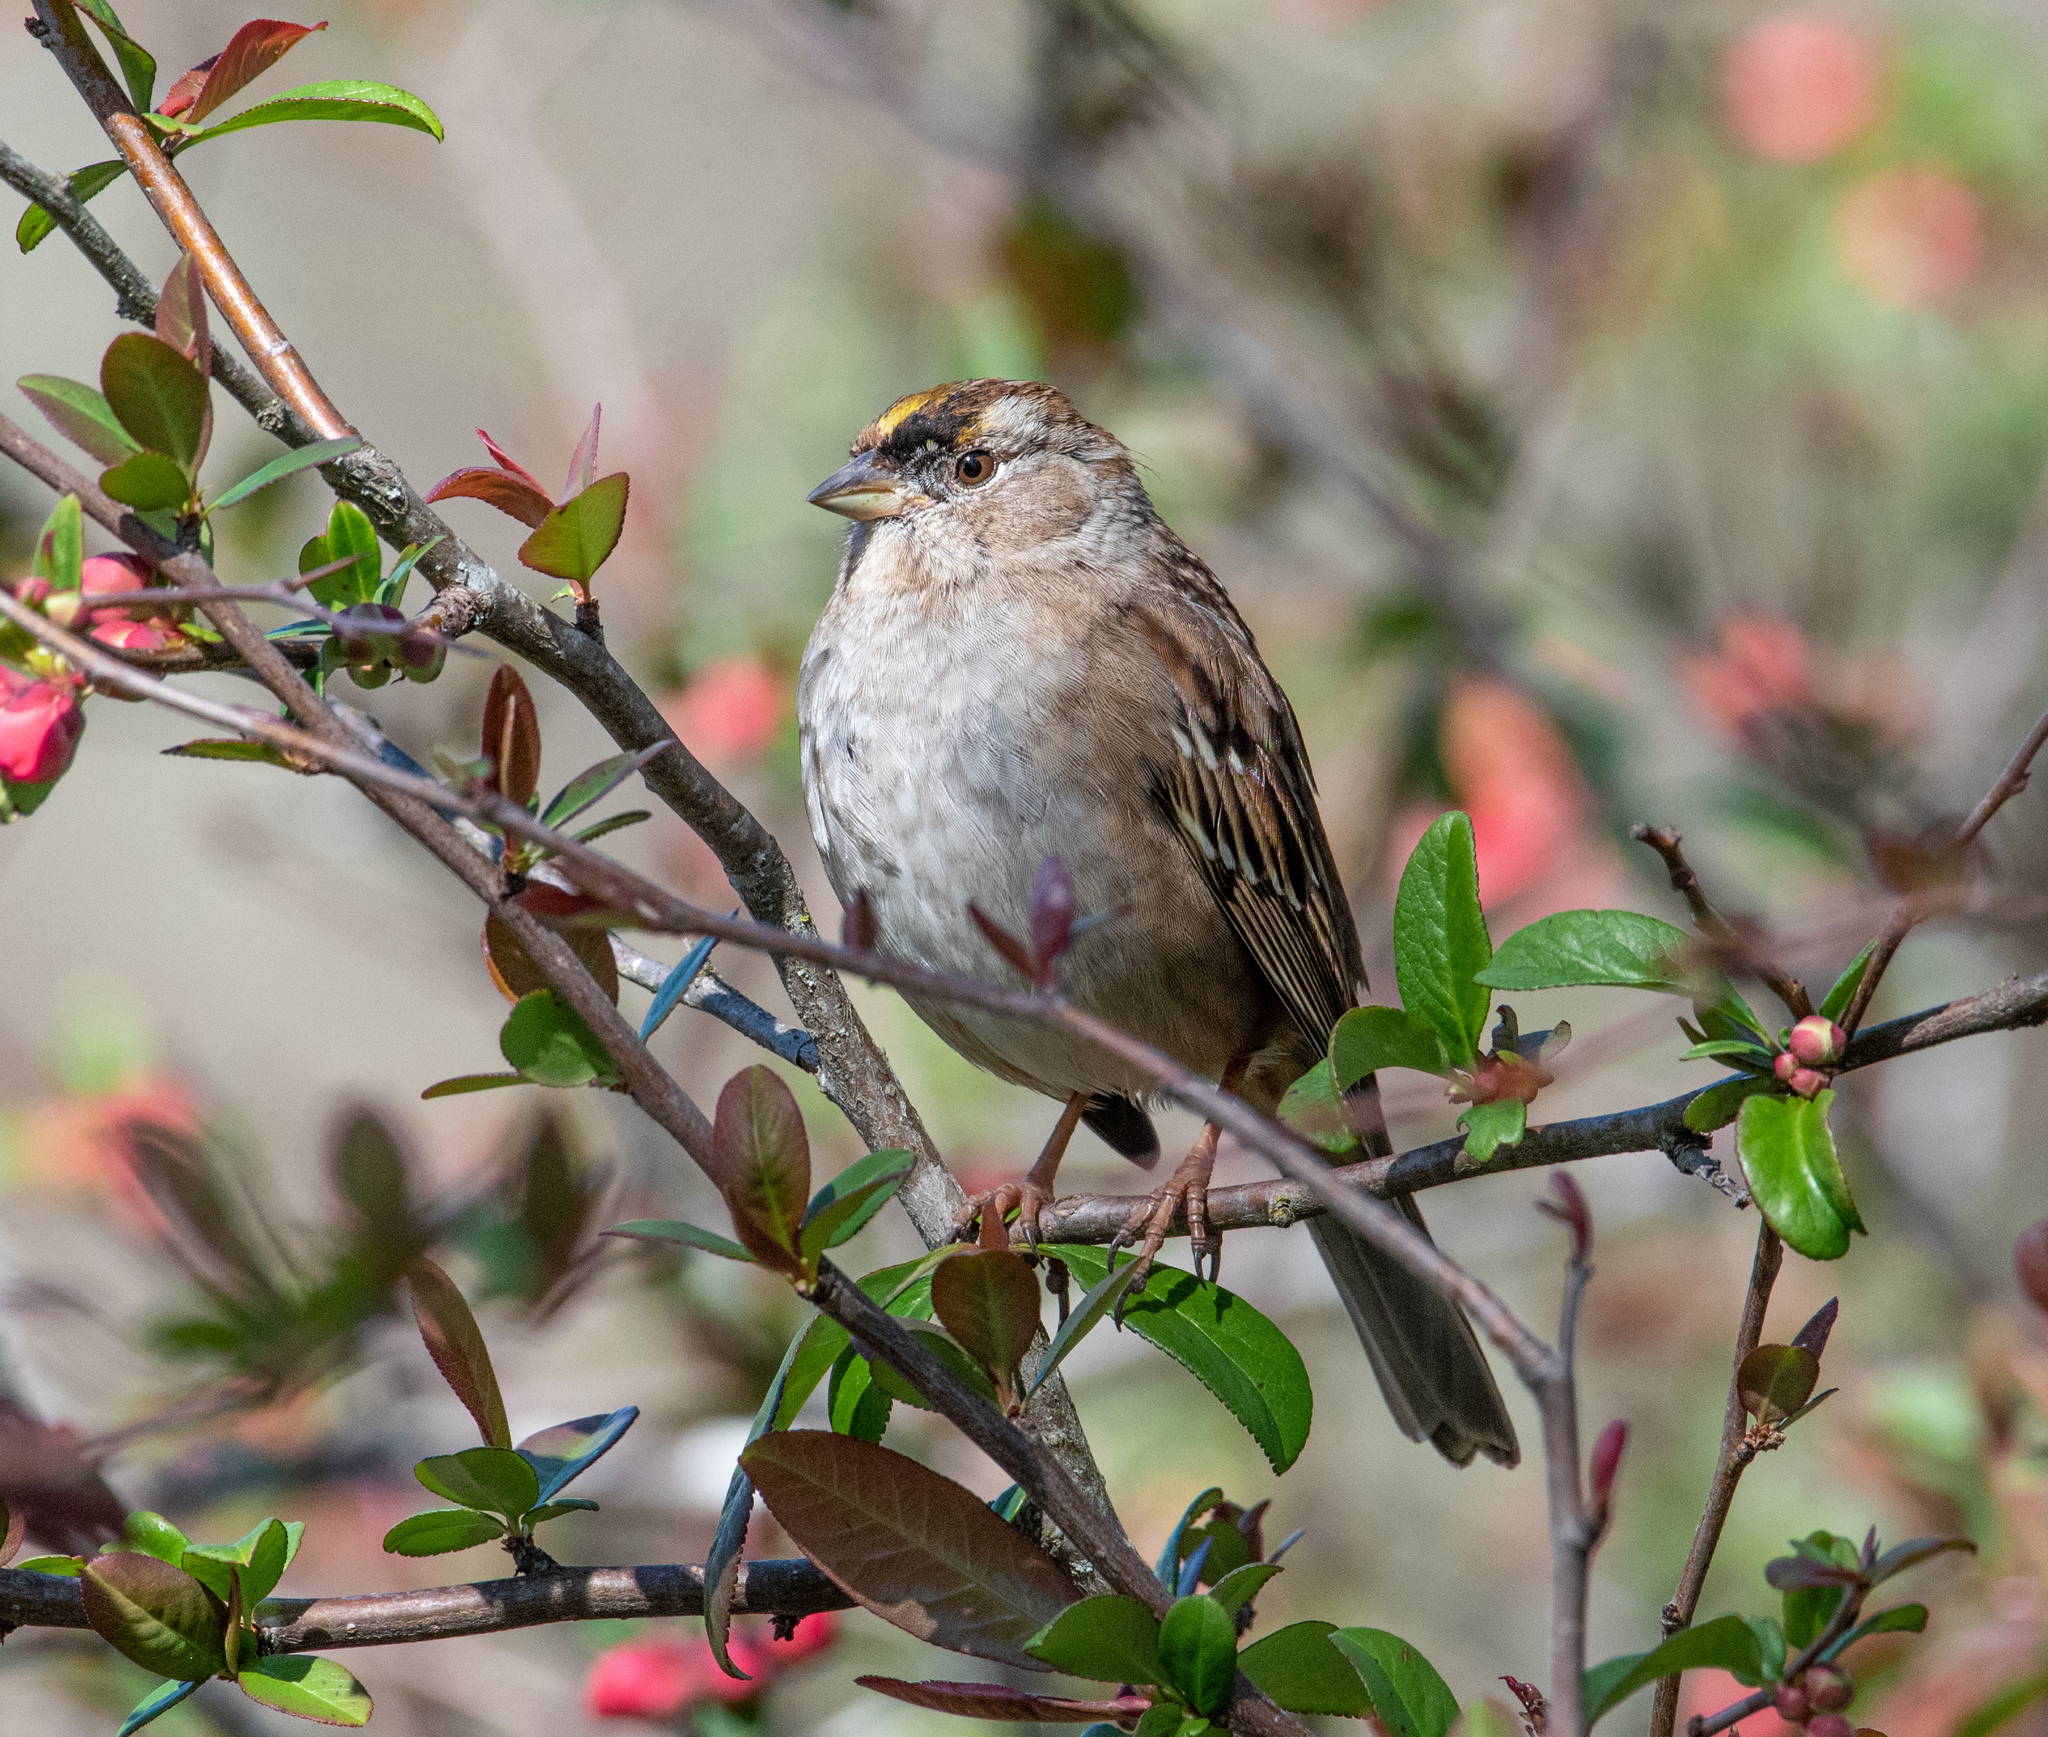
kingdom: Animalia
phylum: Chordata
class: Aves
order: Passeriformes
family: Passerellidae
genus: Zonotrichia
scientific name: Zonotrichia atricapilla
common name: Golden-crowned sparrow
